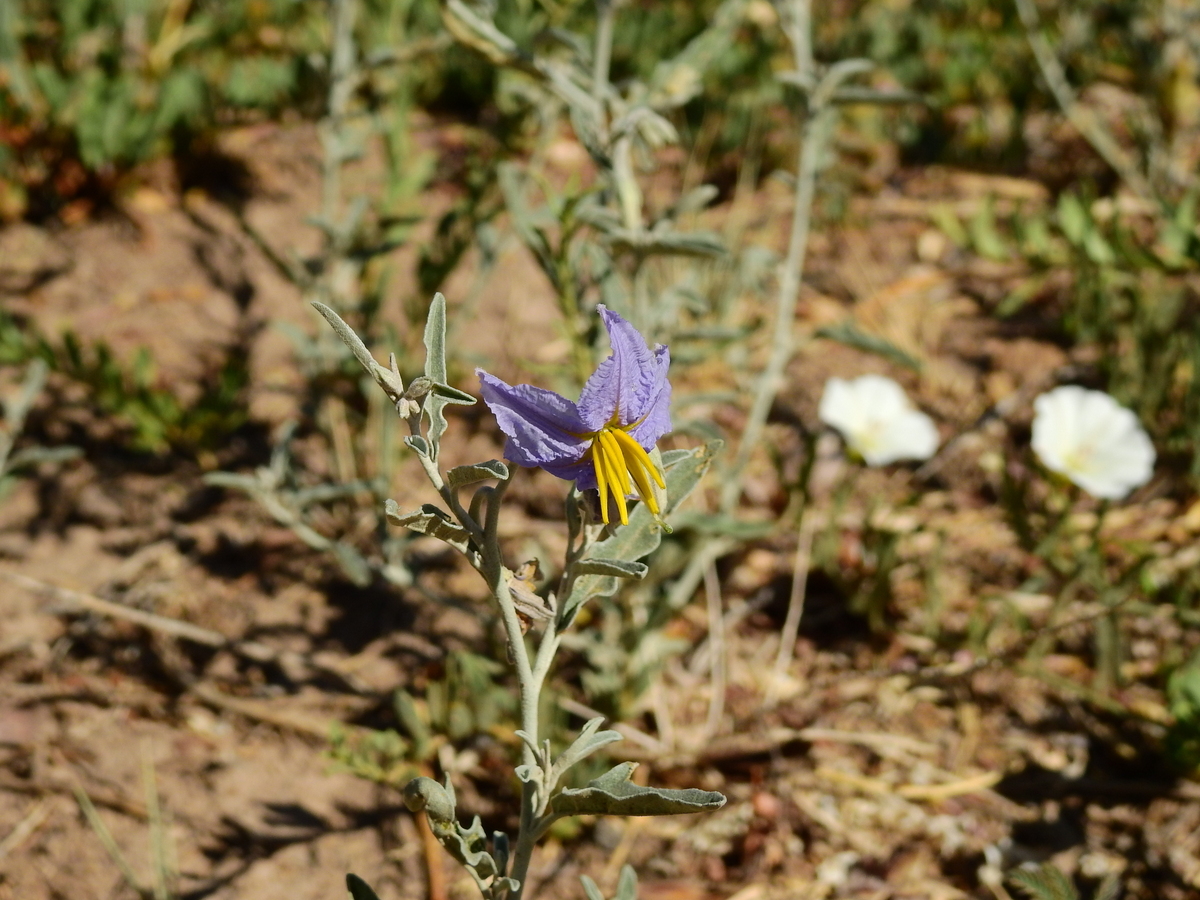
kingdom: Plantae
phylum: Tracheophyta
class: Magnoliopsida
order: Solanales
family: Solanaceae
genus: Solanum
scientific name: Solanum elaeagnifolium
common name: Silverleaf nightshade
